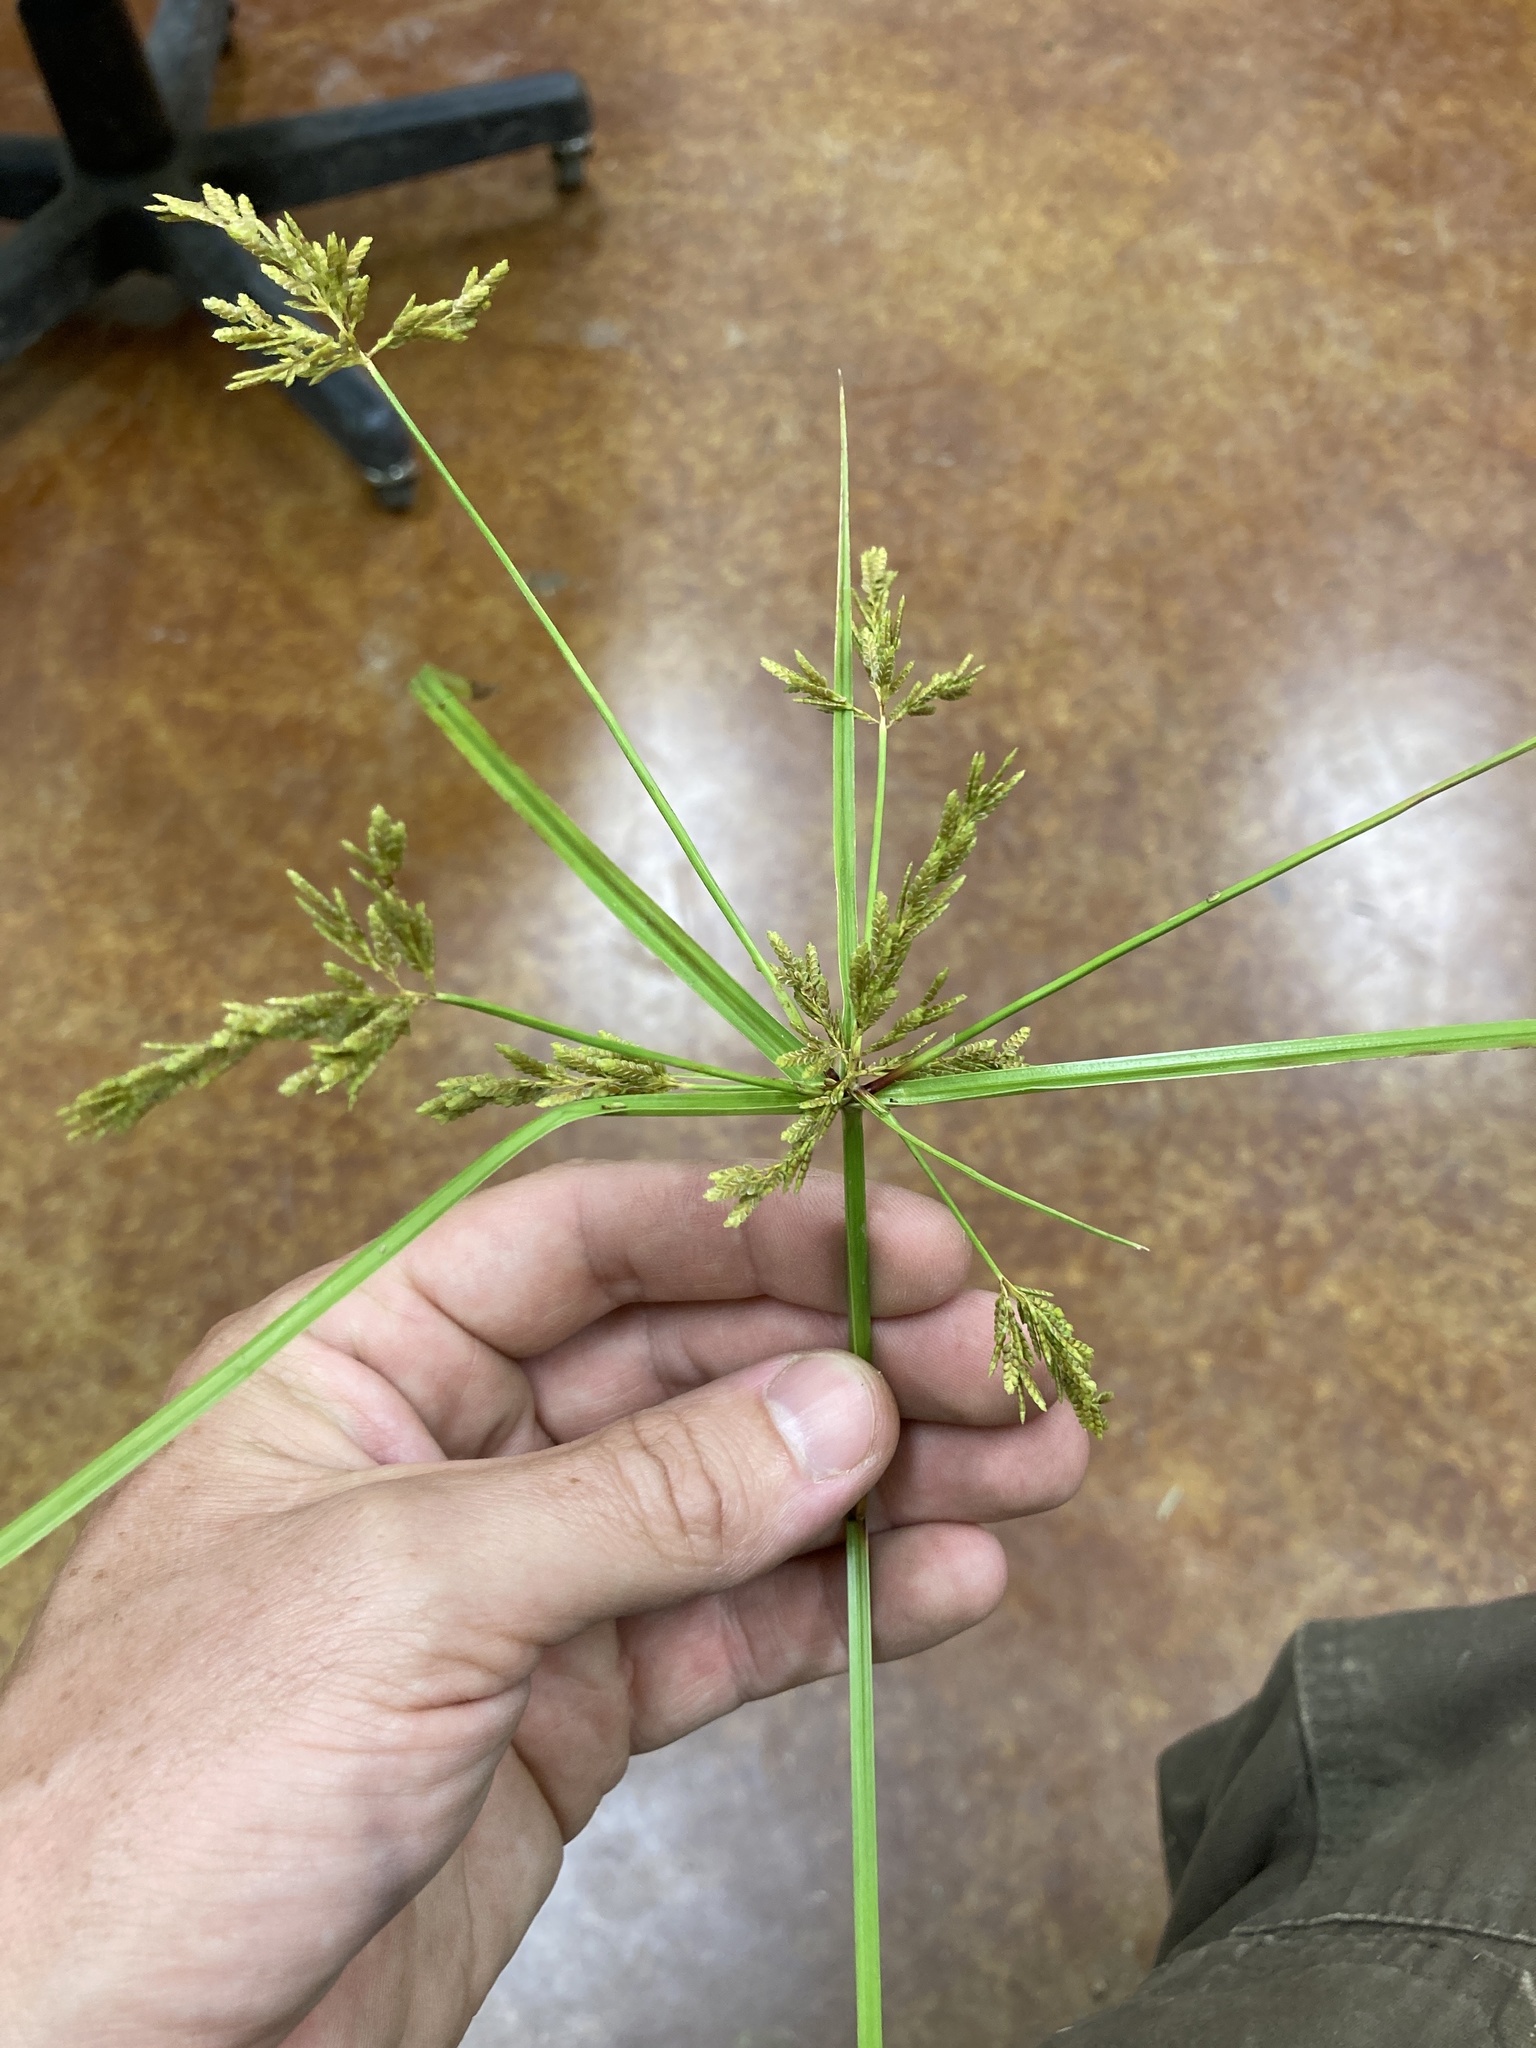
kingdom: Plantae
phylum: Tracheophyta
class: Liliopsida
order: Poales
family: Cyperaceae
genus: Cyperus
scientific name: Cyperus iria
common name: Ricefield flatsedge
